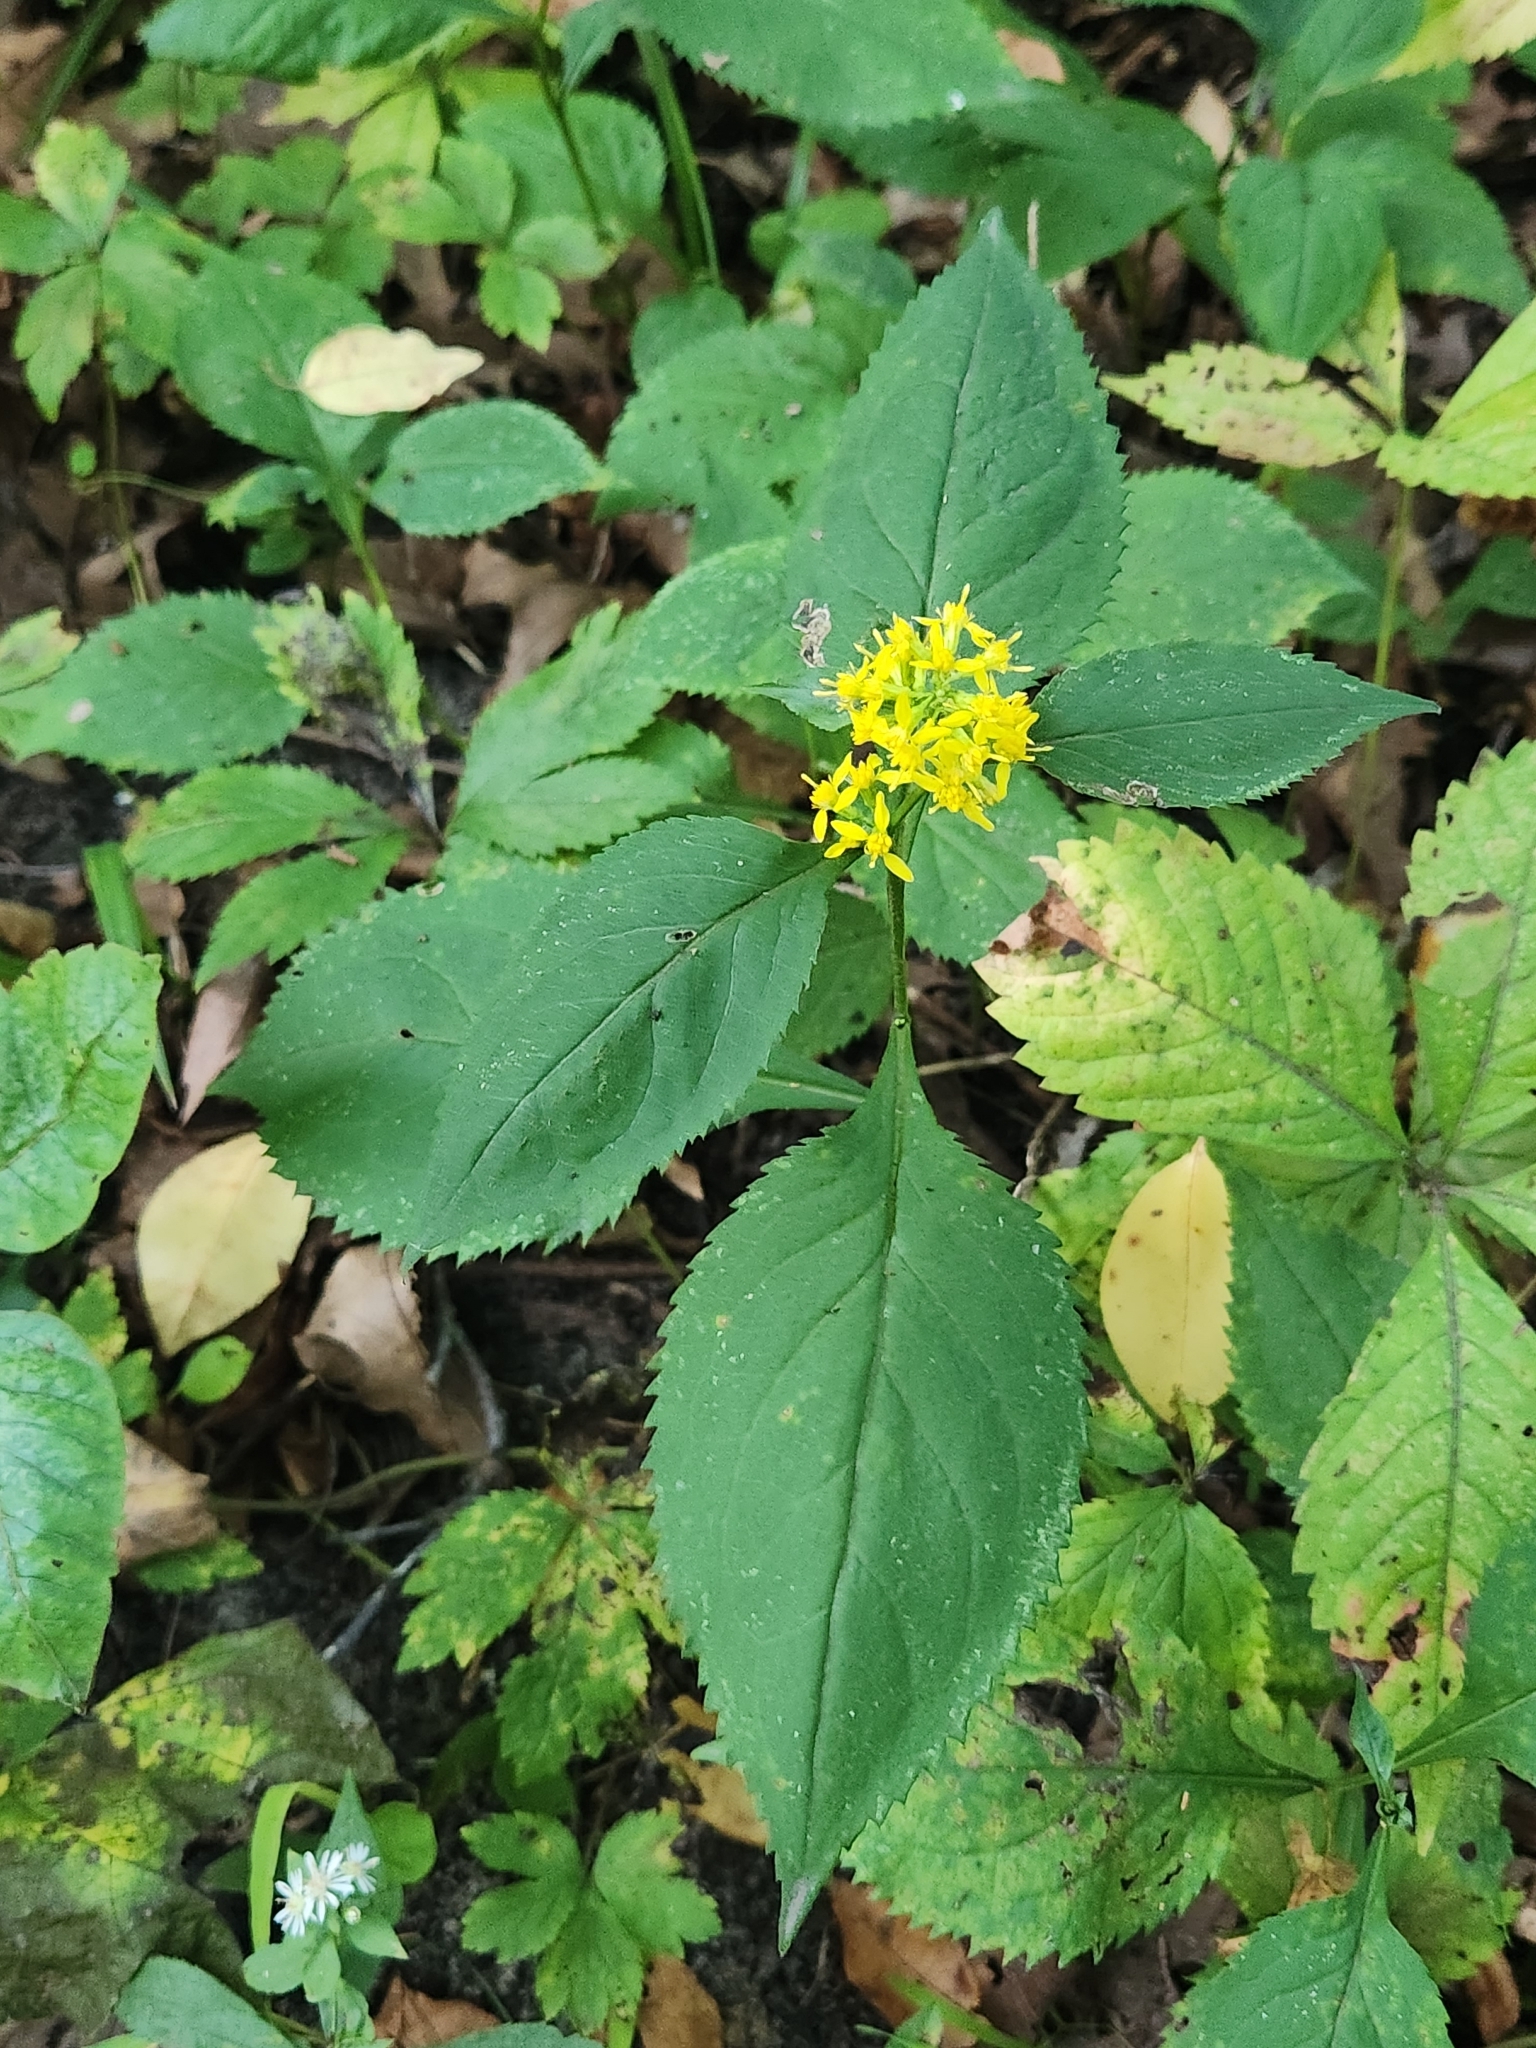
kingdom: Plantae
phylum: Tracheophyta
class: Magnoliopsida
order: Asterales
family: Asteraceae
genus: Solidago
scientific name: Solidago flexicaulis
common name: Zig-zag goldenrod
